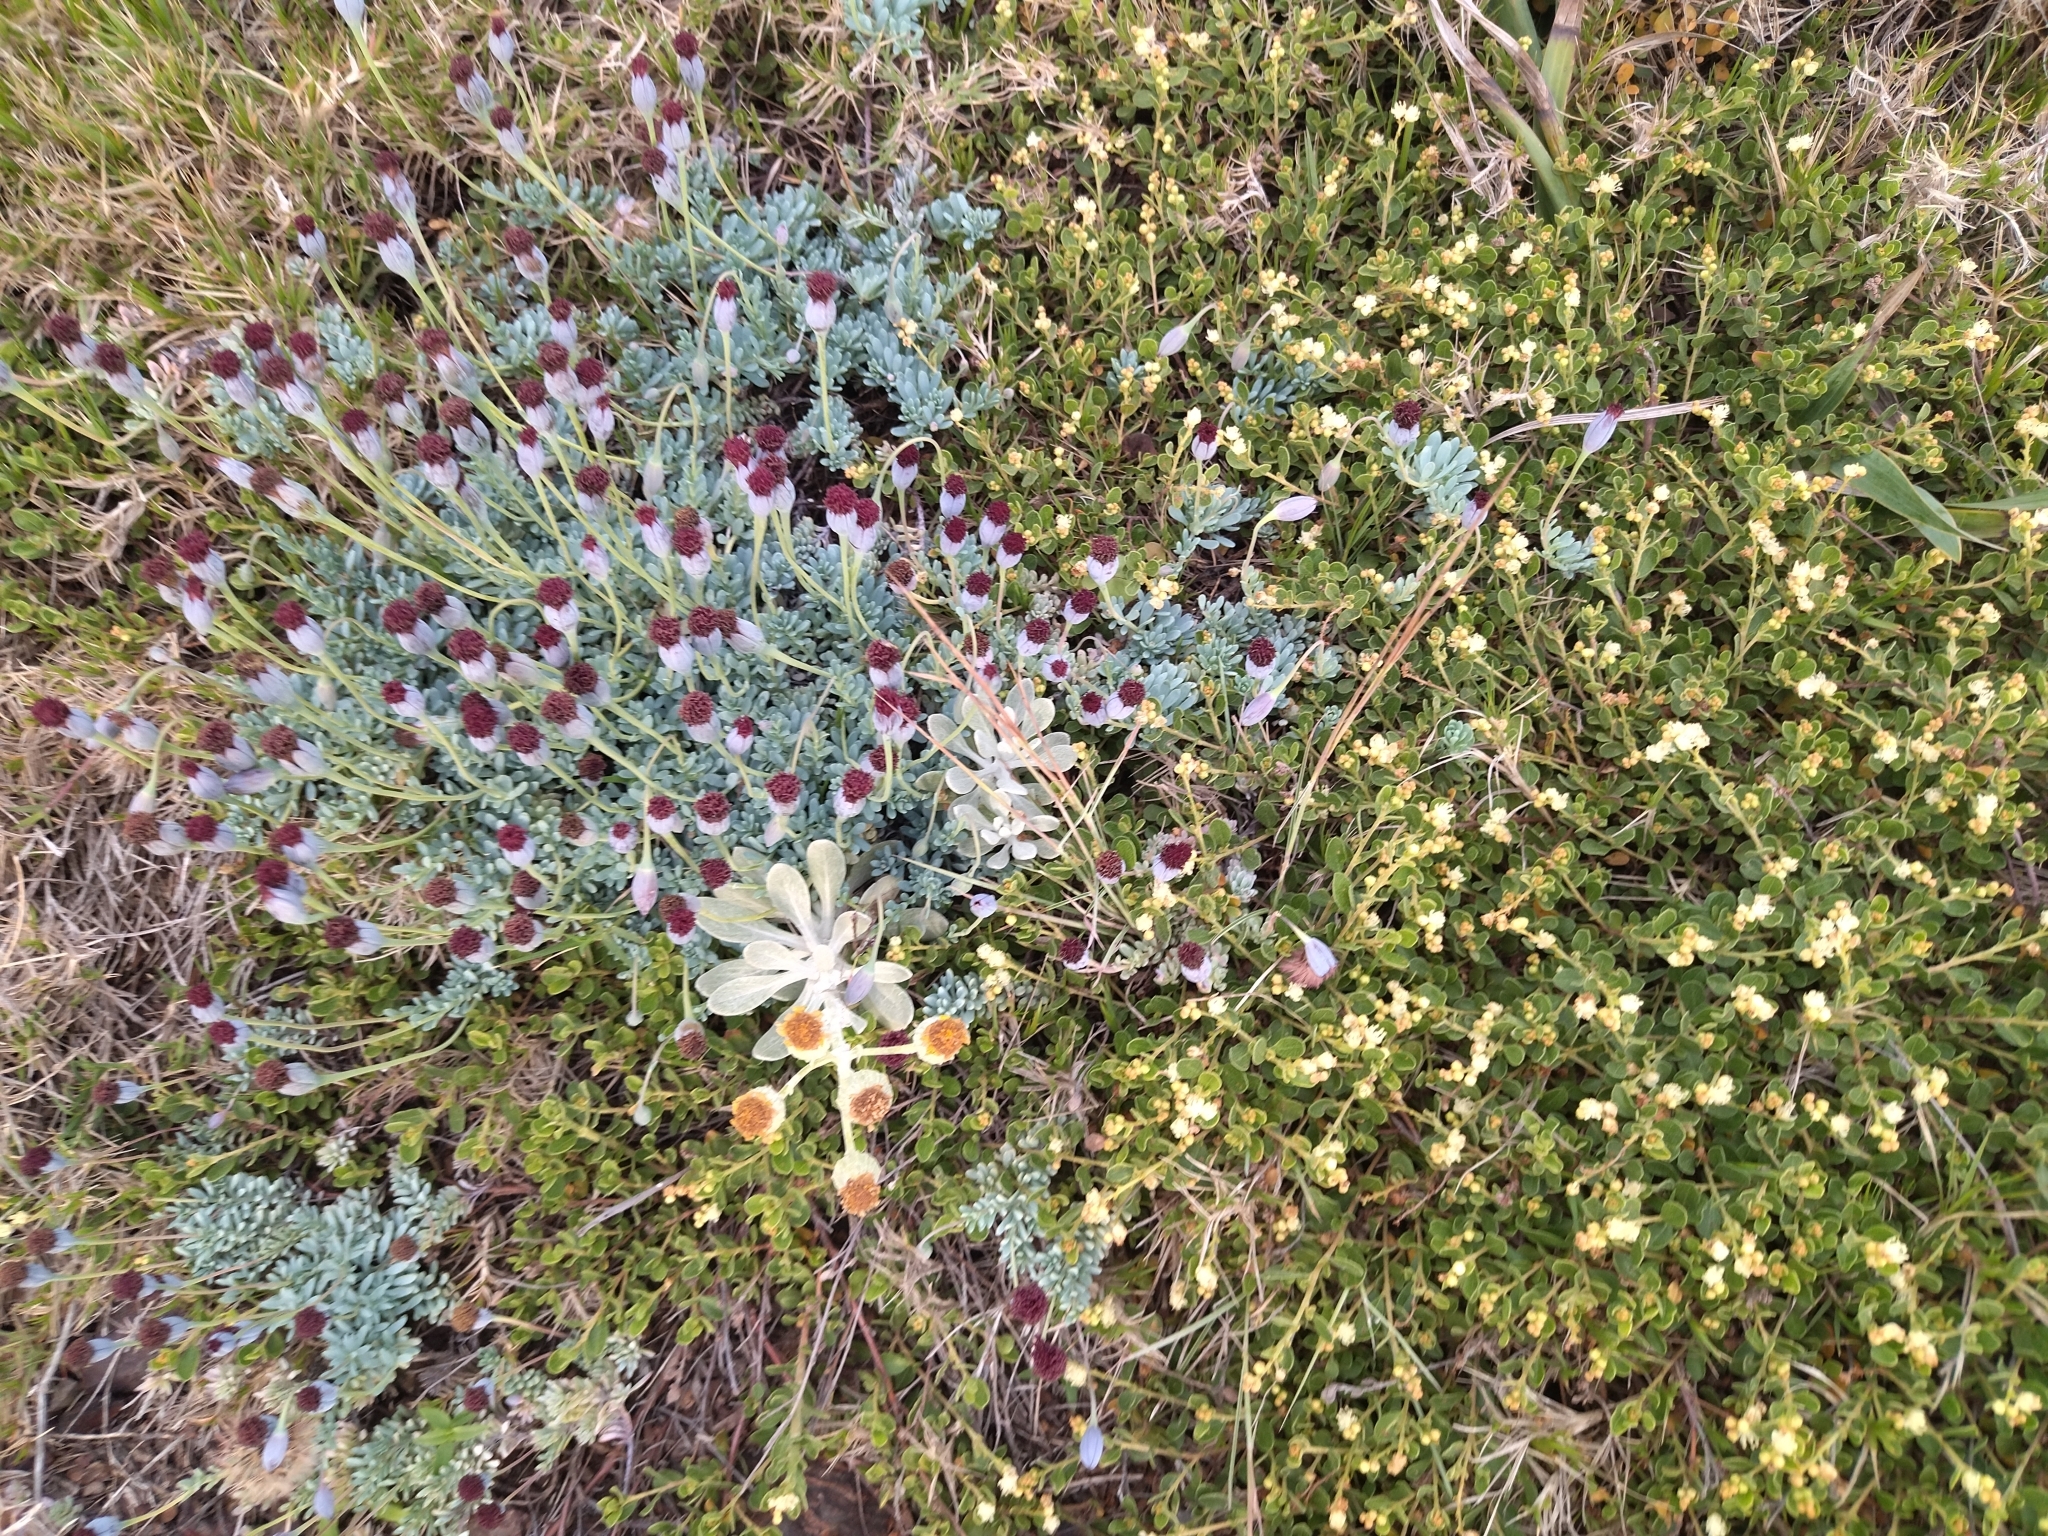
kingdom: Plantae
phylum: Tracheophyta
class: Magnoliopsida
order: Asterales
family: Asteraceae
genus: Porophyllum
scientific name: Porophyllum linifolium
